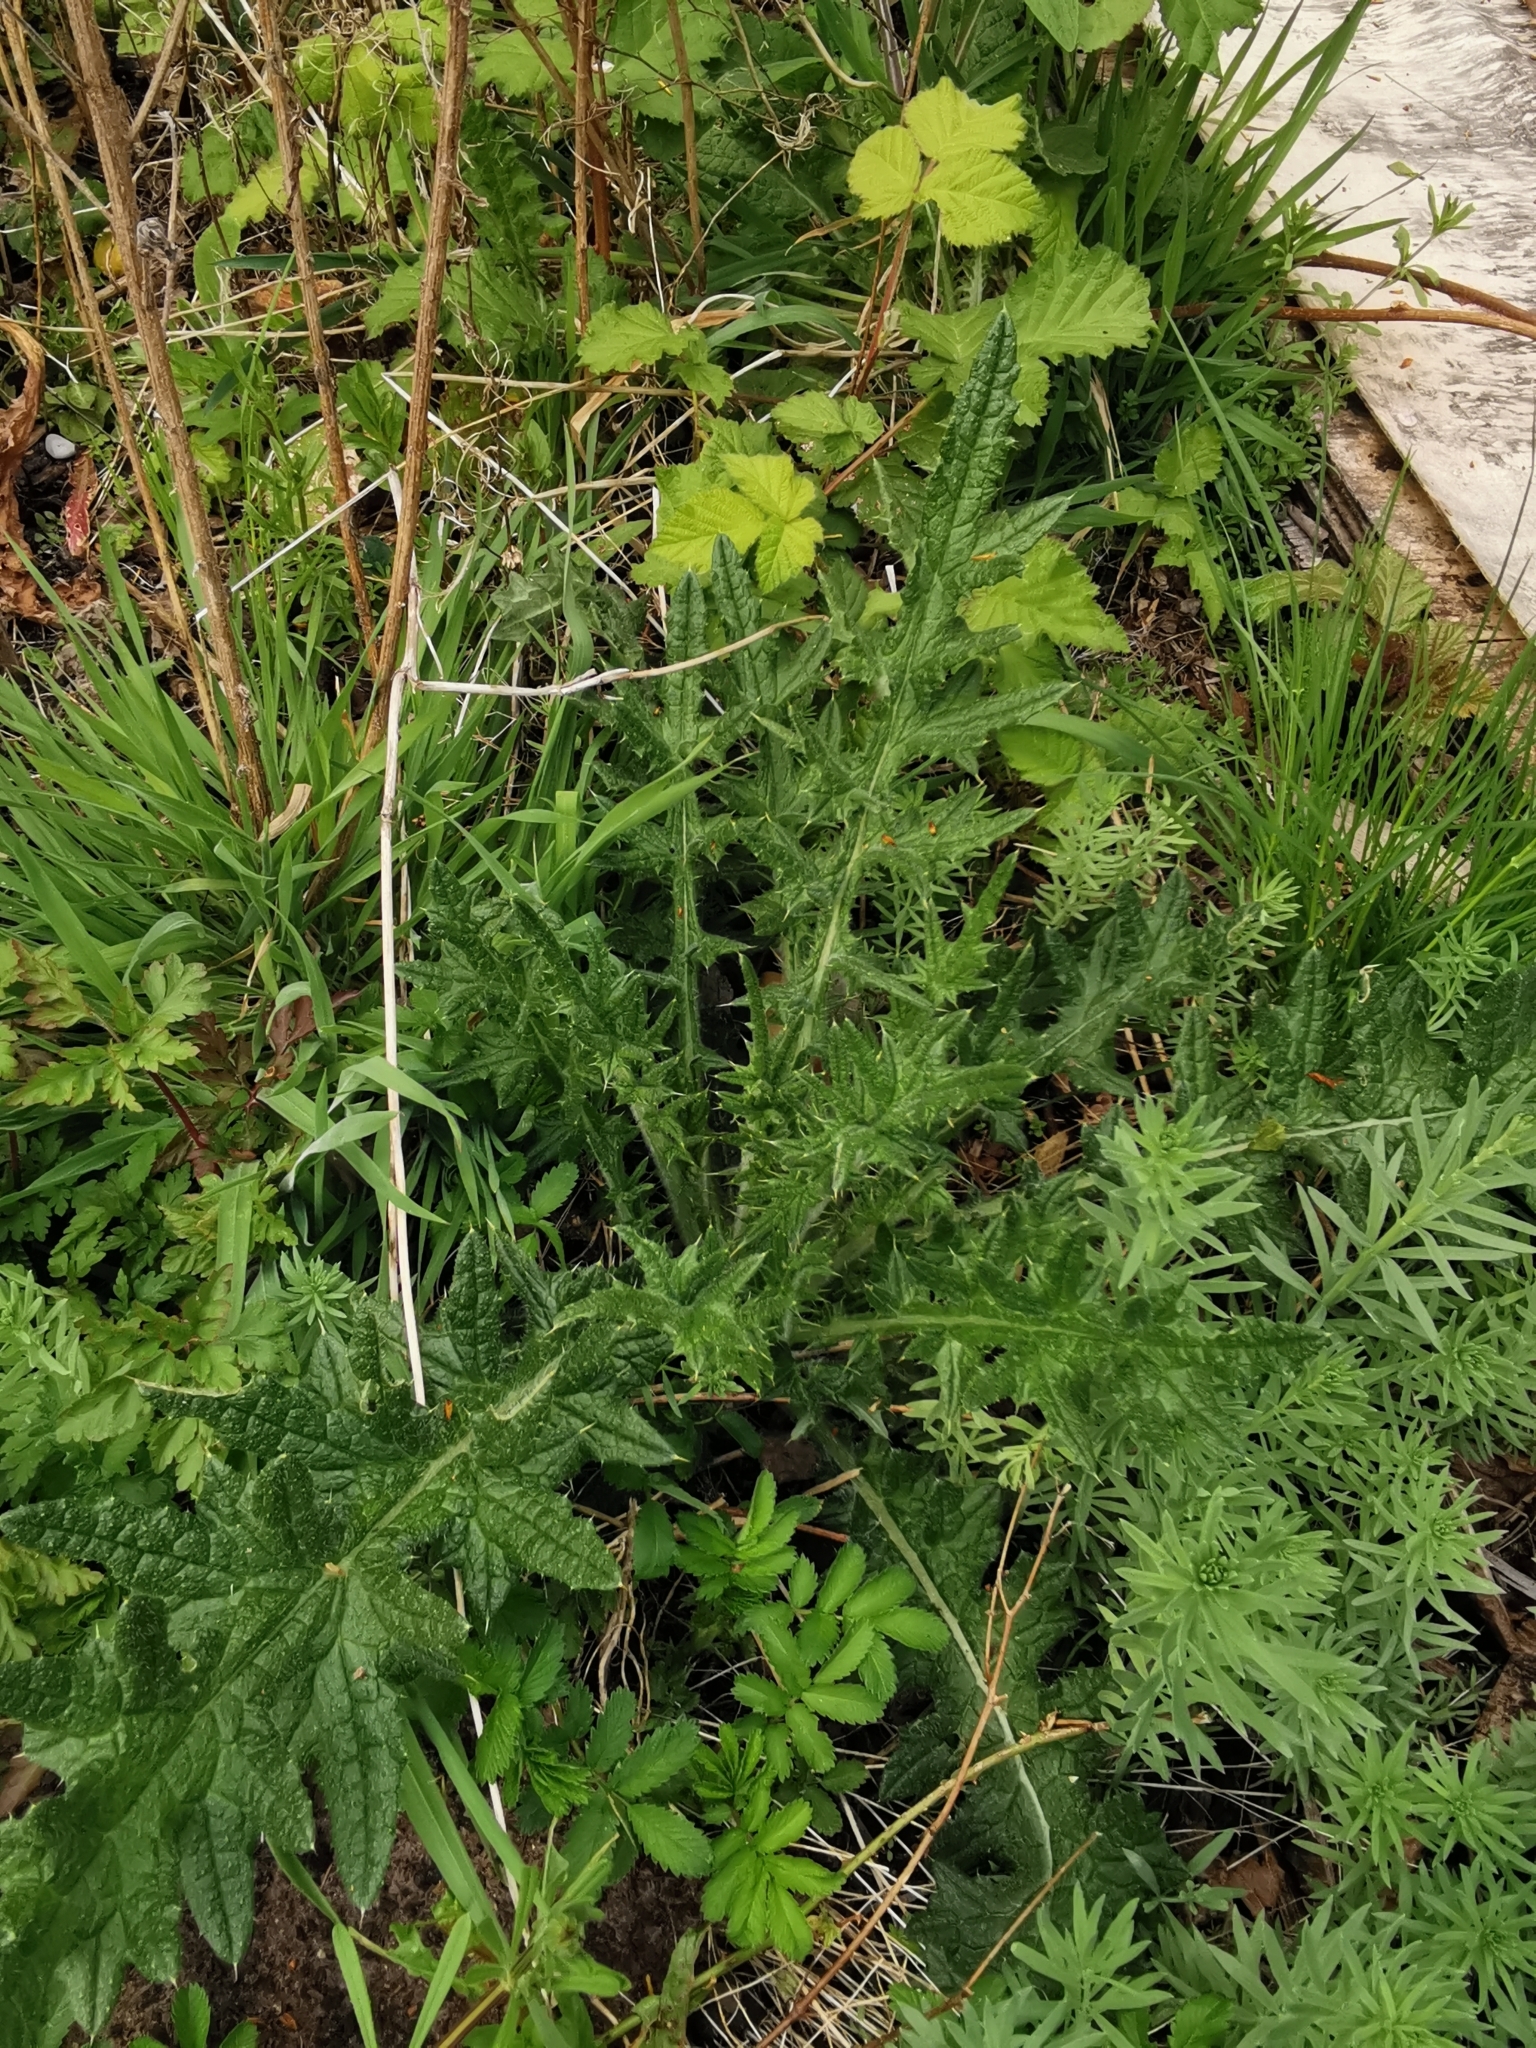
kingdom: Plantae
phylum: Tracheophyta
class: Magnoliopsida
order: Asterales
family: Asteraceae
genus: Cirsium
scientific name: Cirsium vulgare
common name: Bull thistle
